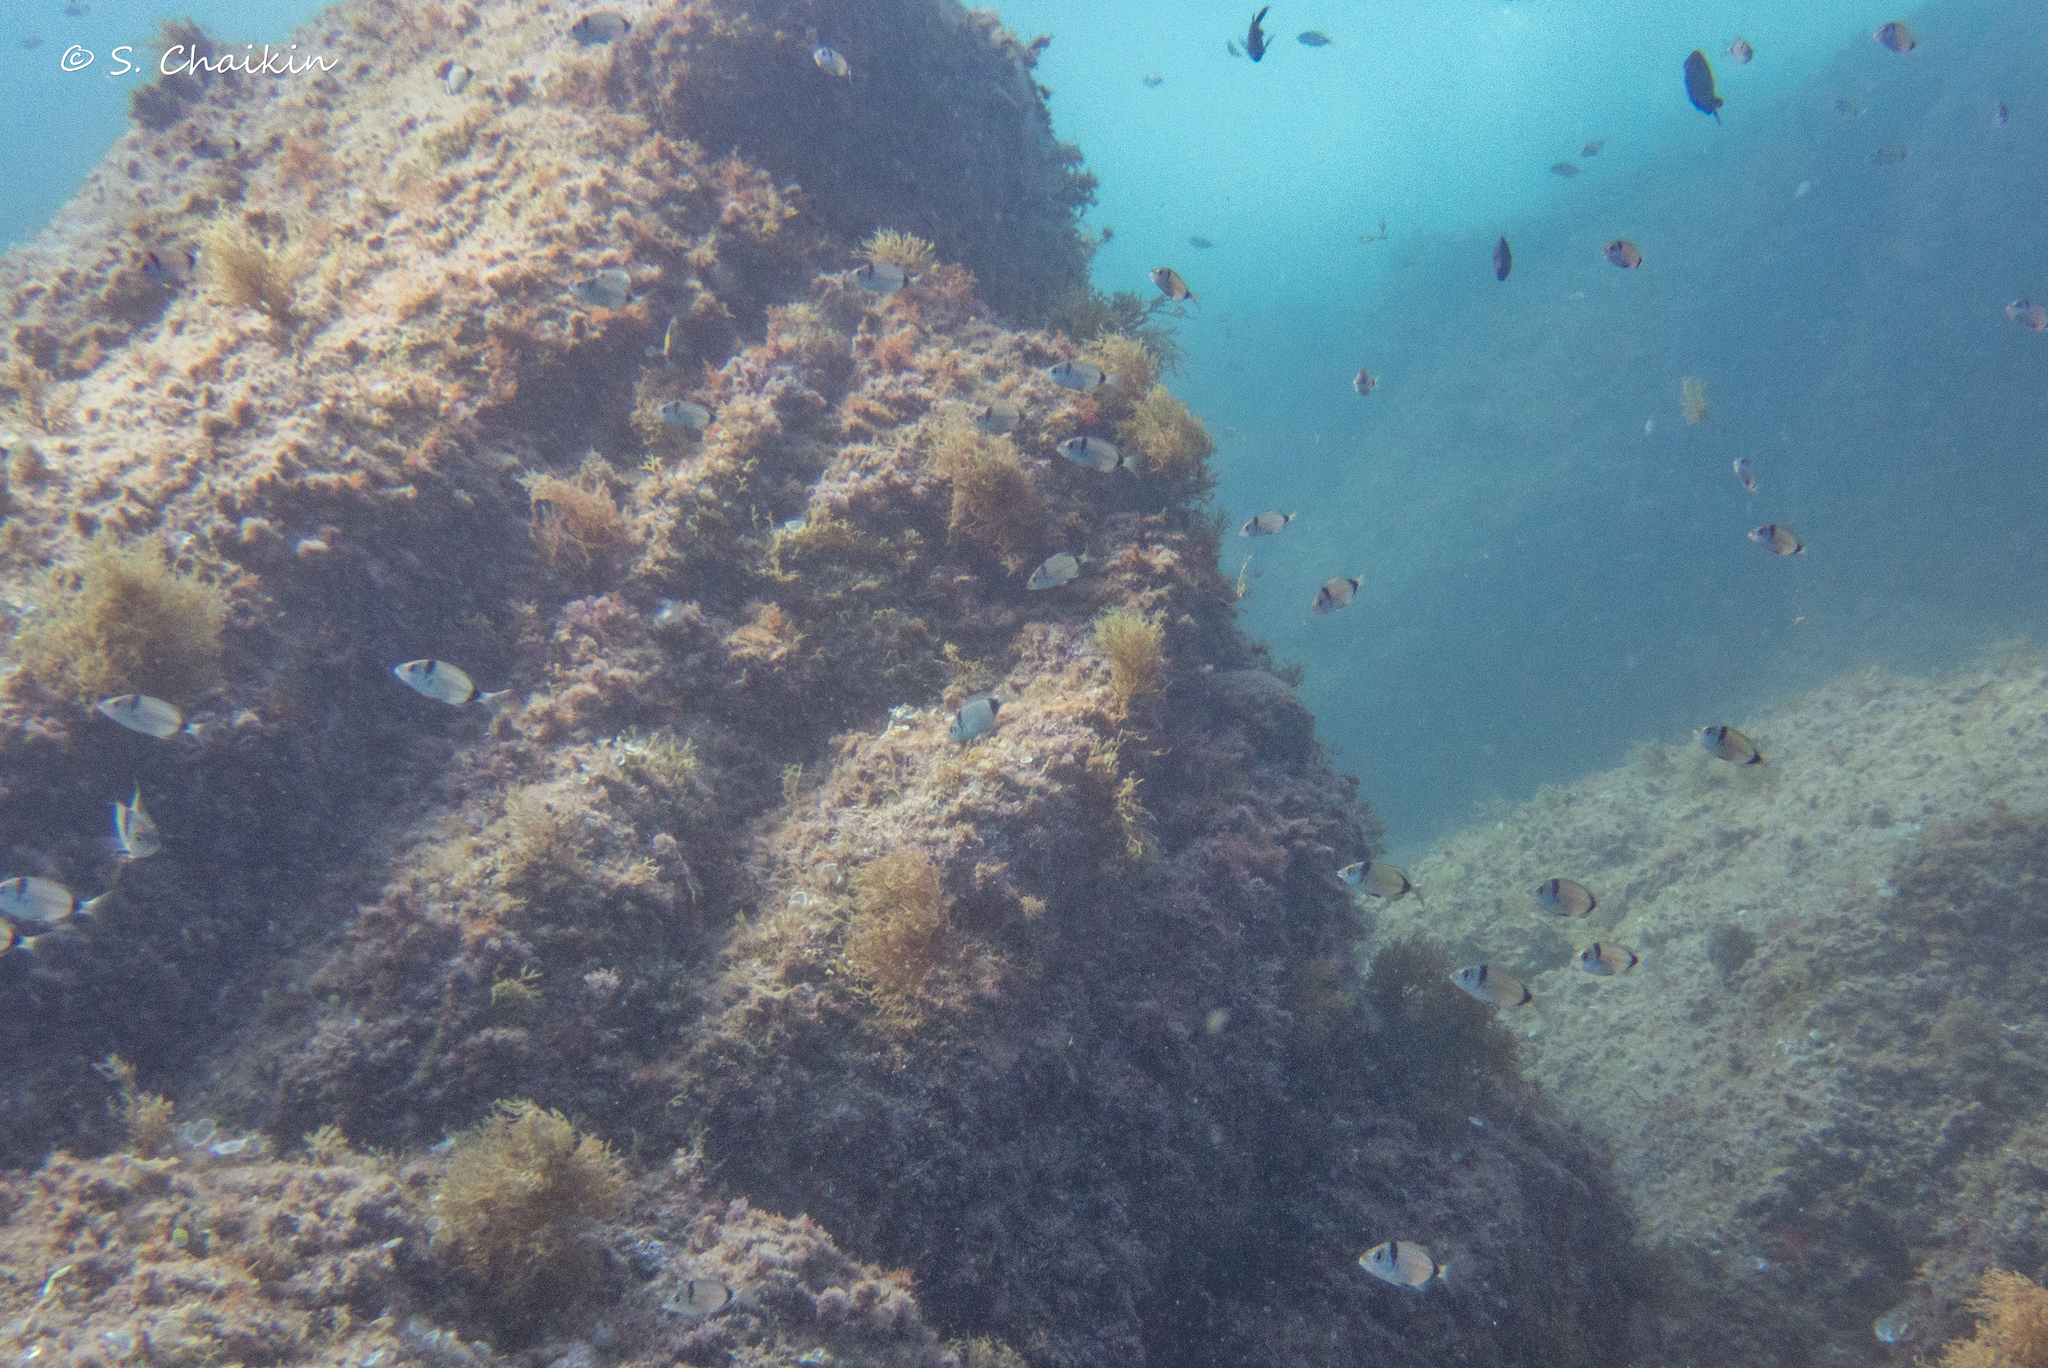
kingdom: Animalia
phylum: Chordata
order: Perciformes
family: Sparidae
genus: Diplodus
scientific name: Diplodus vulgaris
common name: Common two-banded seabream
